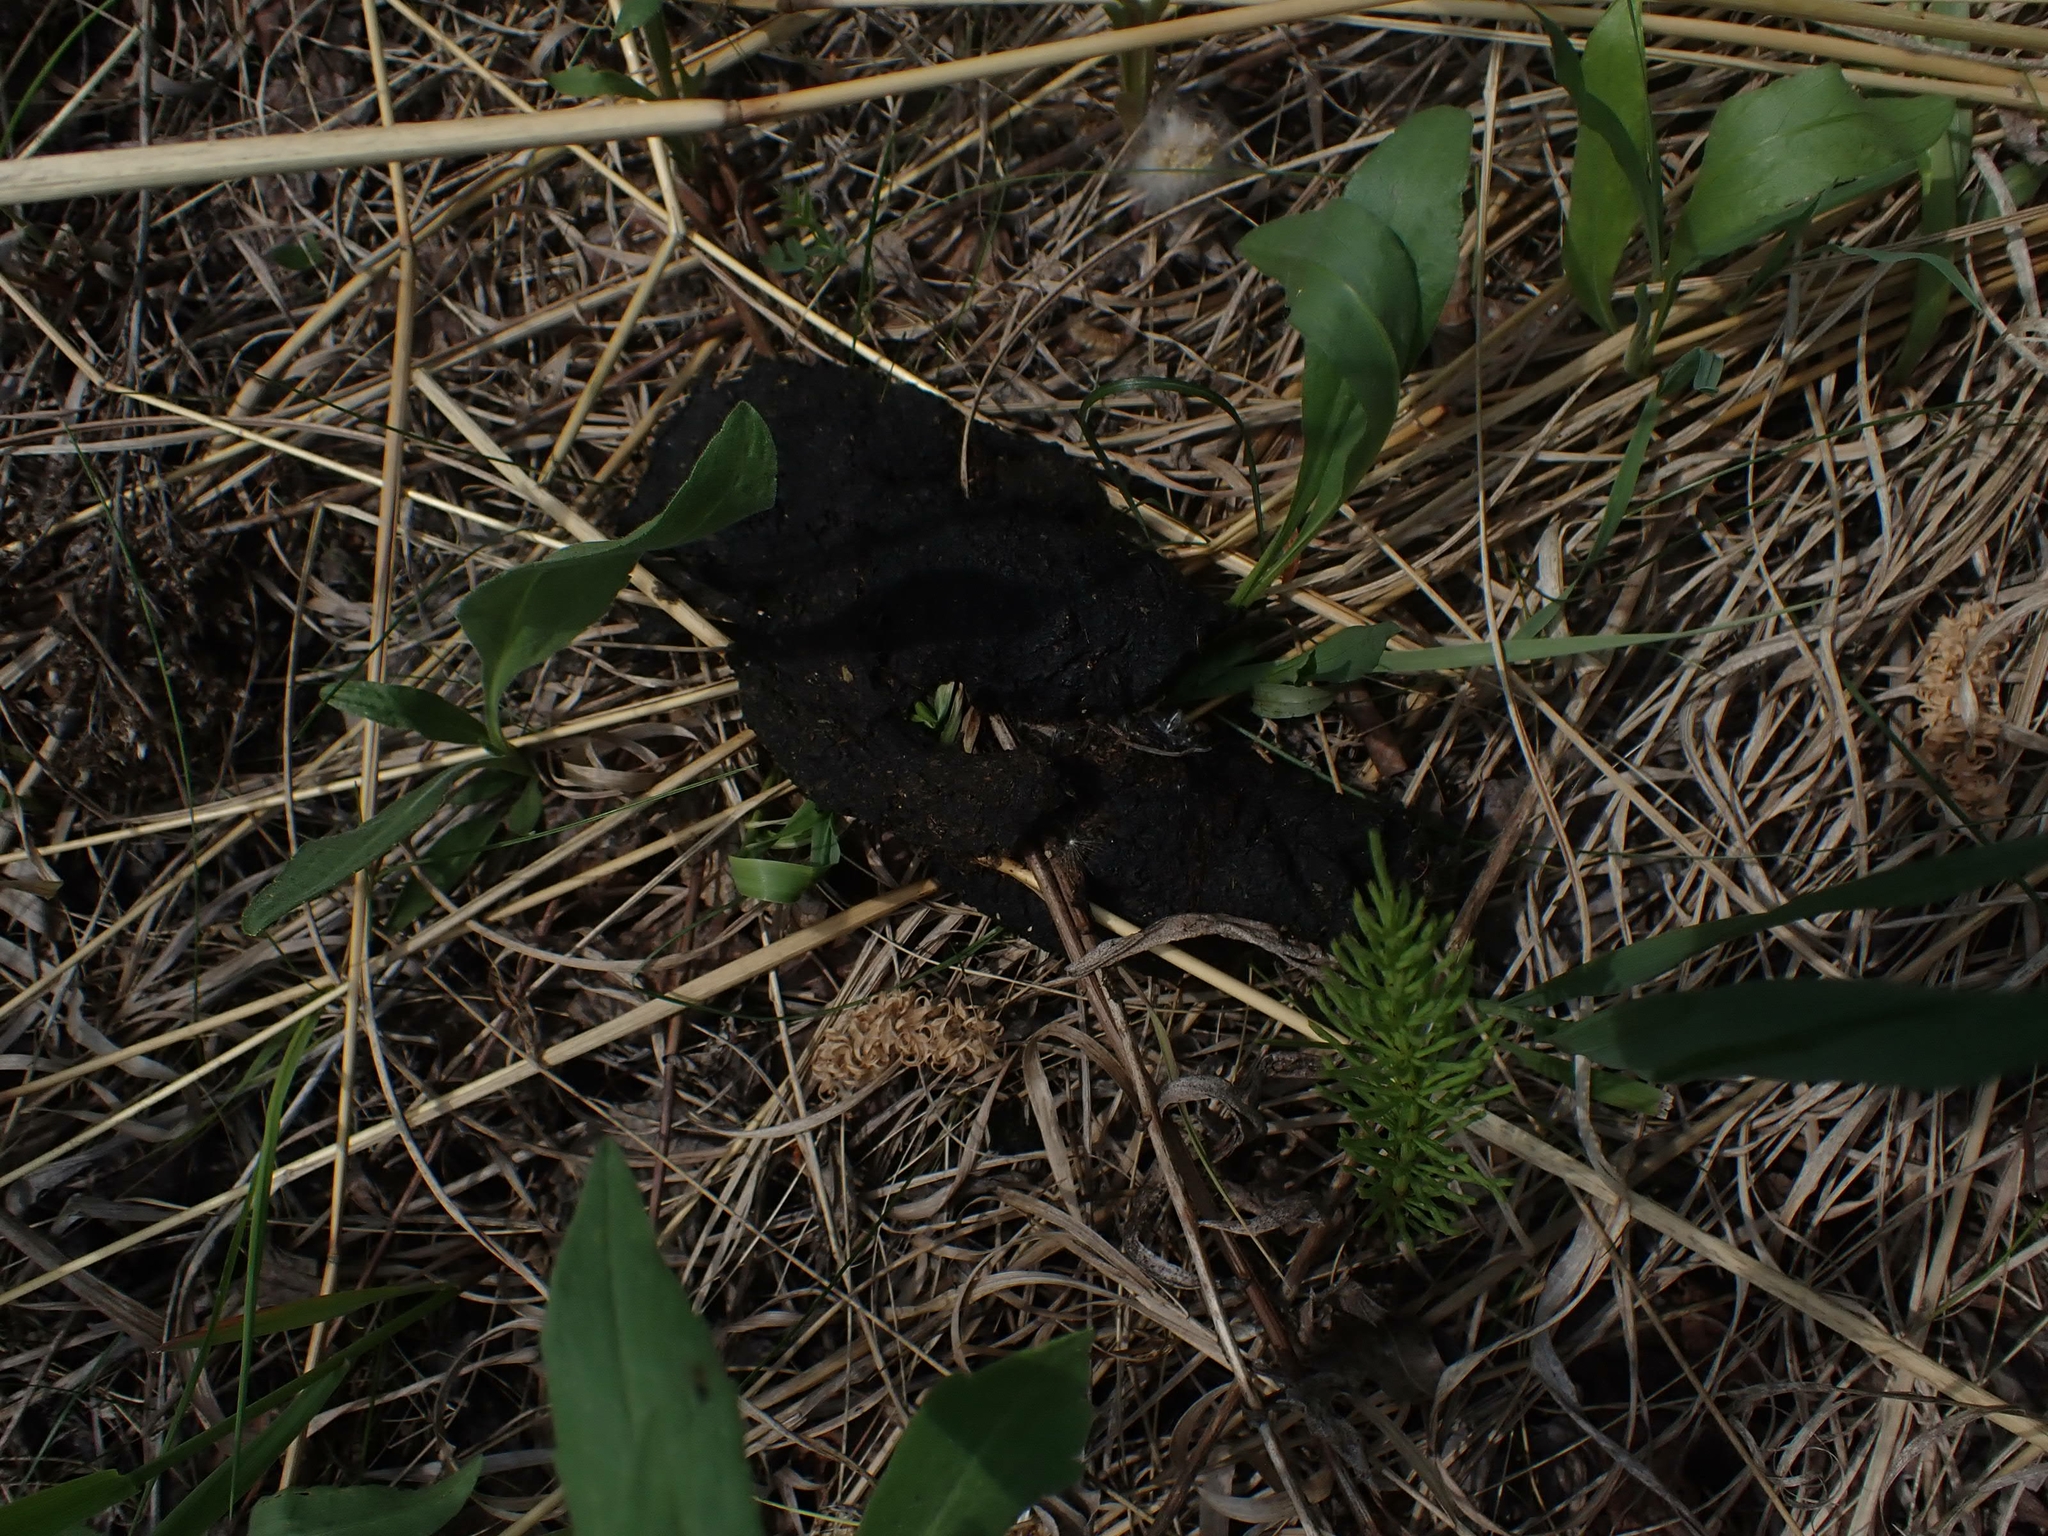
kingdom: Animalia
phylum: Chordata
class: Mammalia
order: Carnivora
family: Ursidae
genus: Ursus
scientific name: Ursus americanus
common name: American black bear
